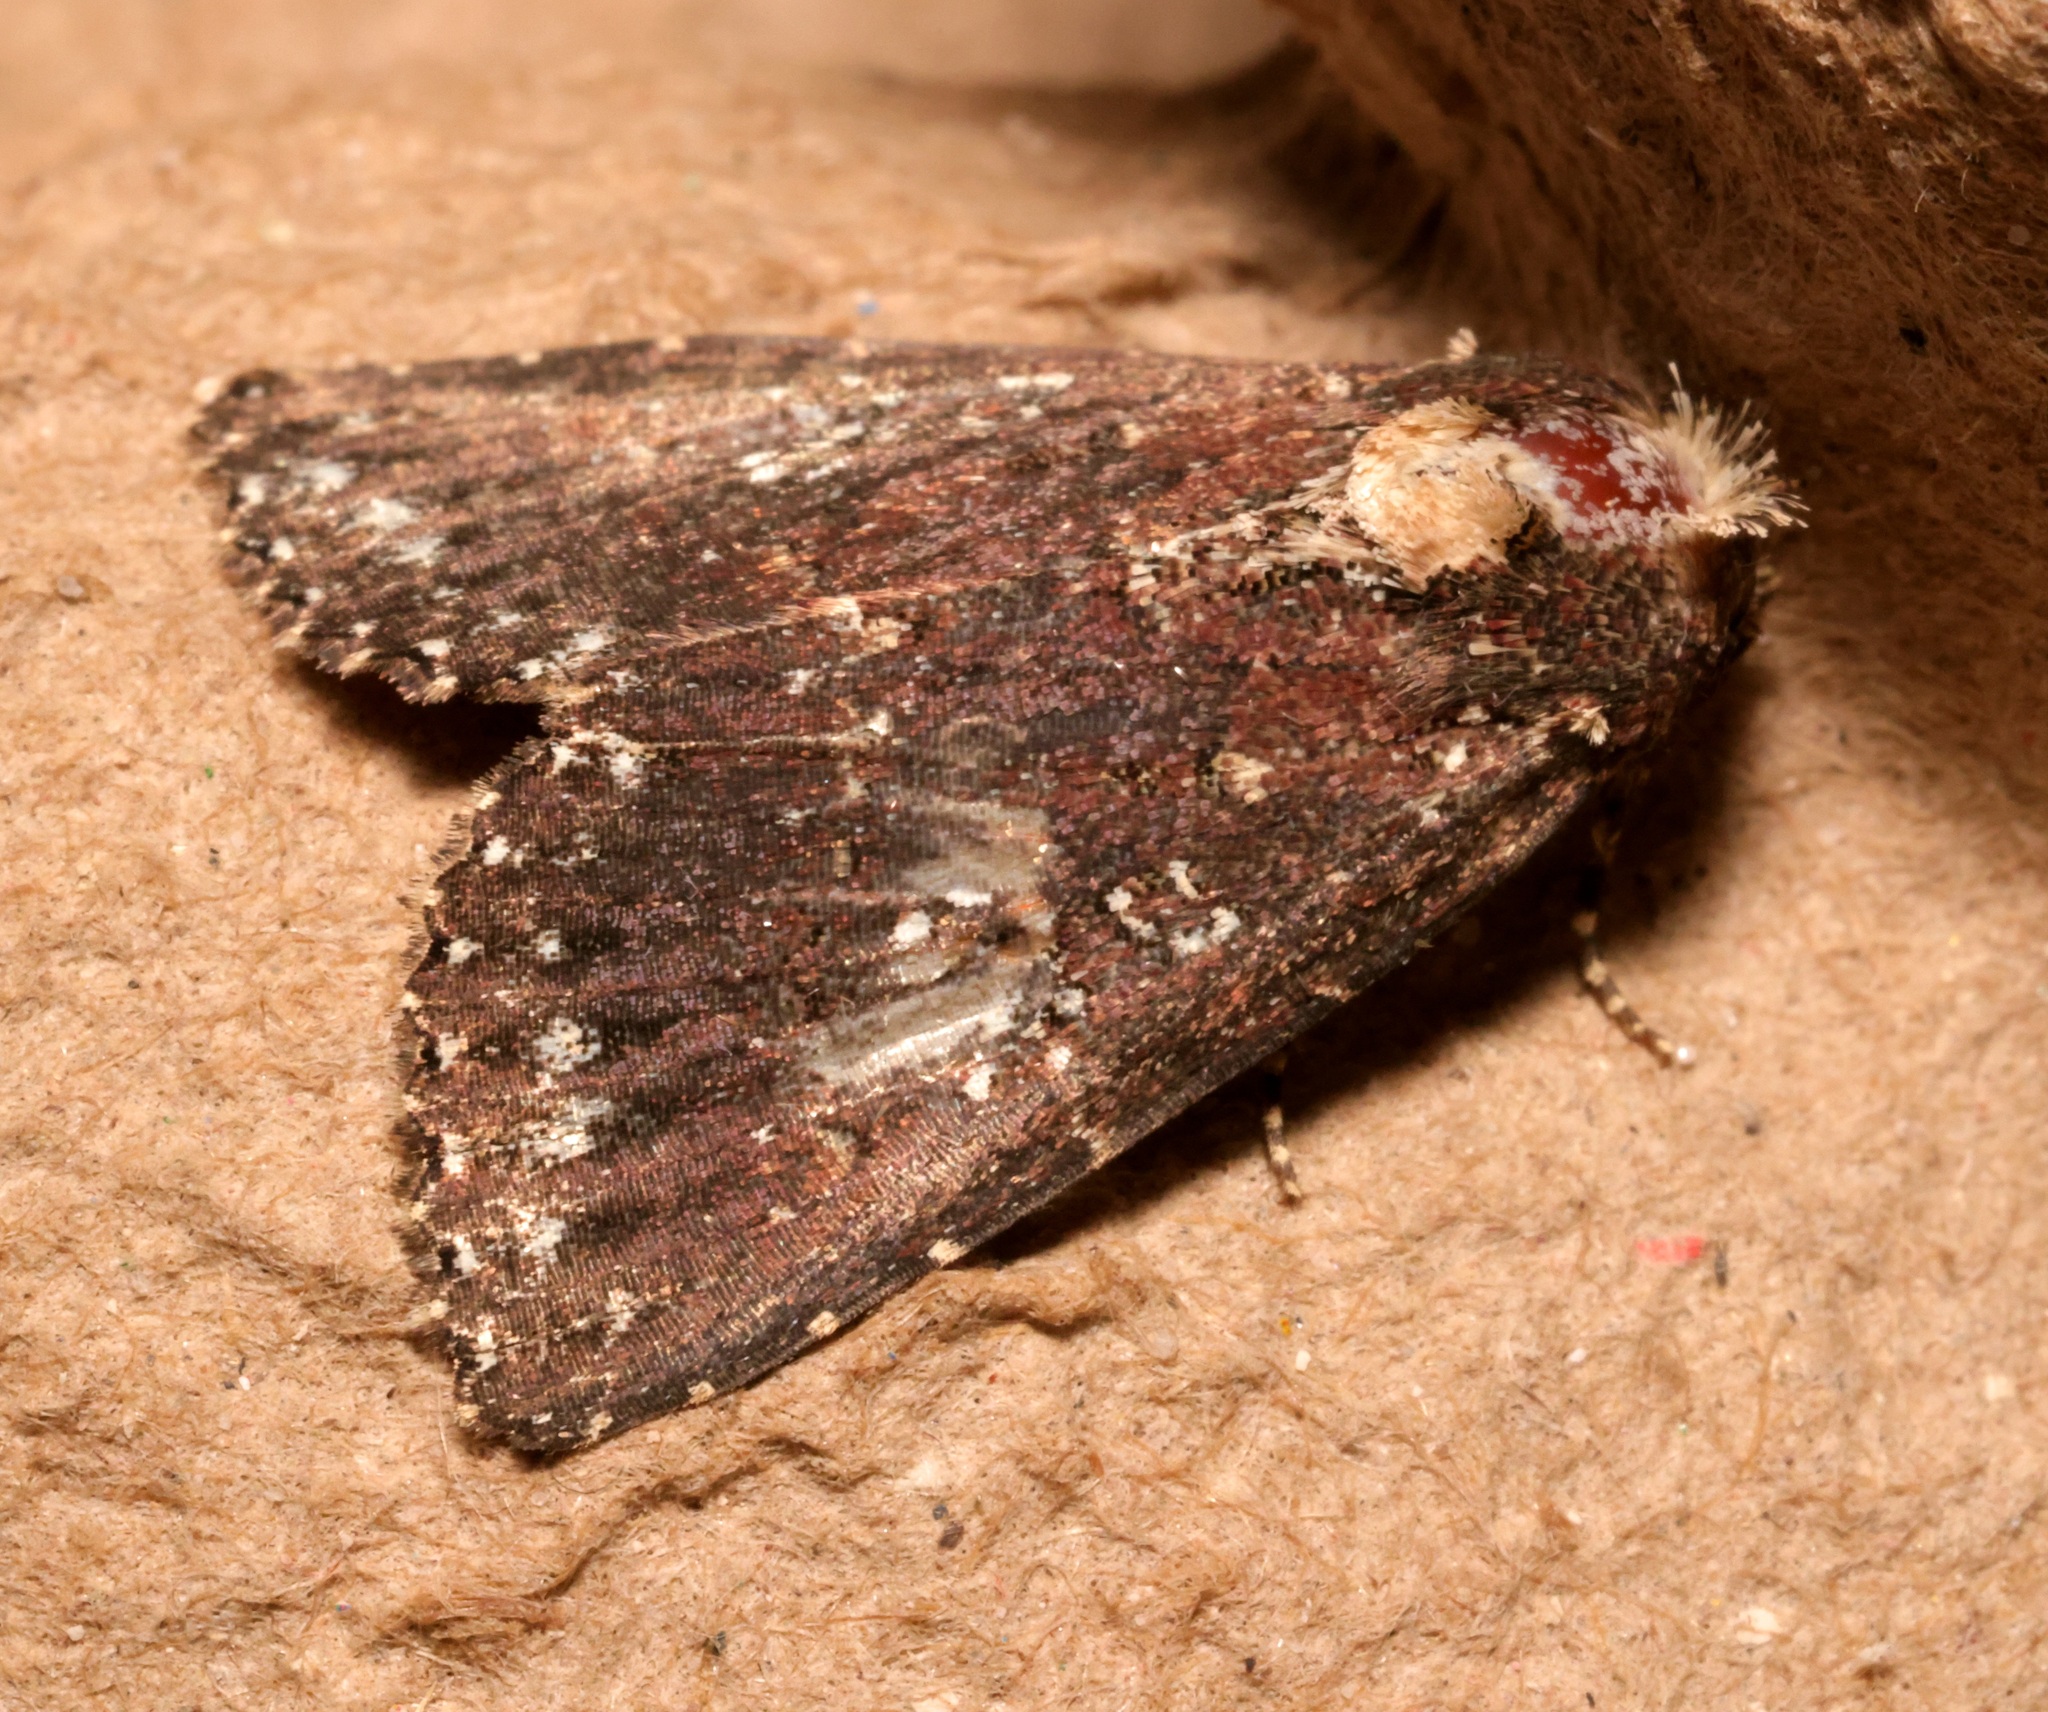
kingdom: Animalia
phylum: Arthropoda
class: Insecta
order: Lepidoptera
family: Noctuidae
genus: Condica
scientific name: Condica albigutta
